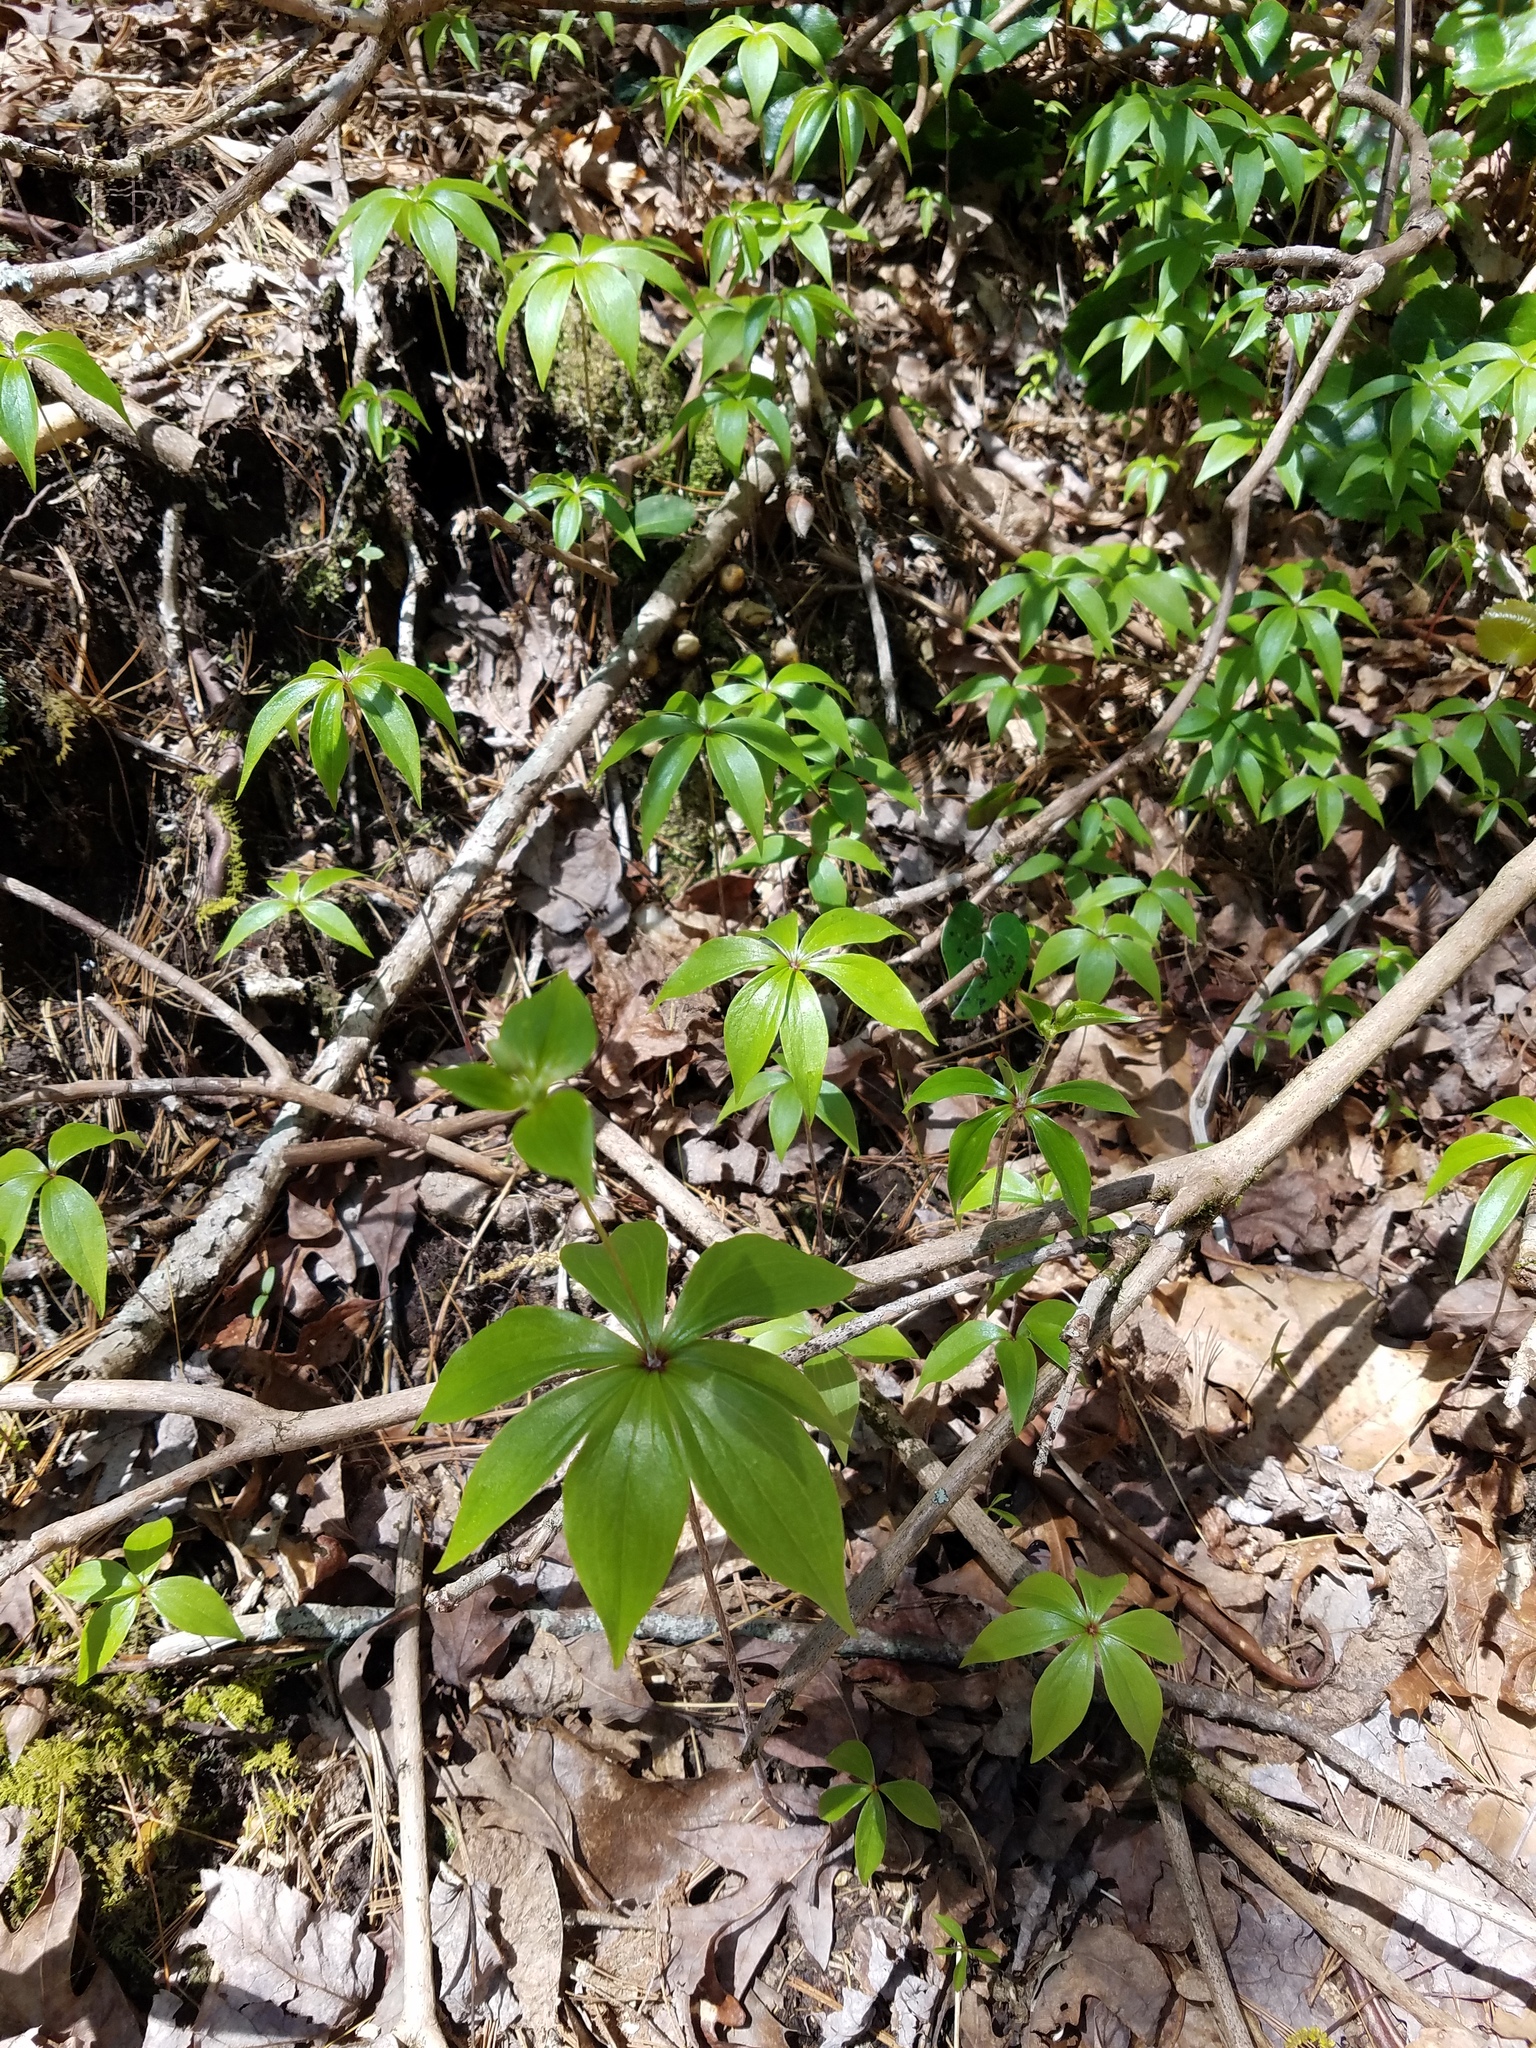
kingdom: Plantae
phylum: Tracheophyta
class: Liliopsida
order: Liliales
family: Liliaceae
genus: Medeola
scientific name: Medeola virginiana
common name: Indian cucumber-root
